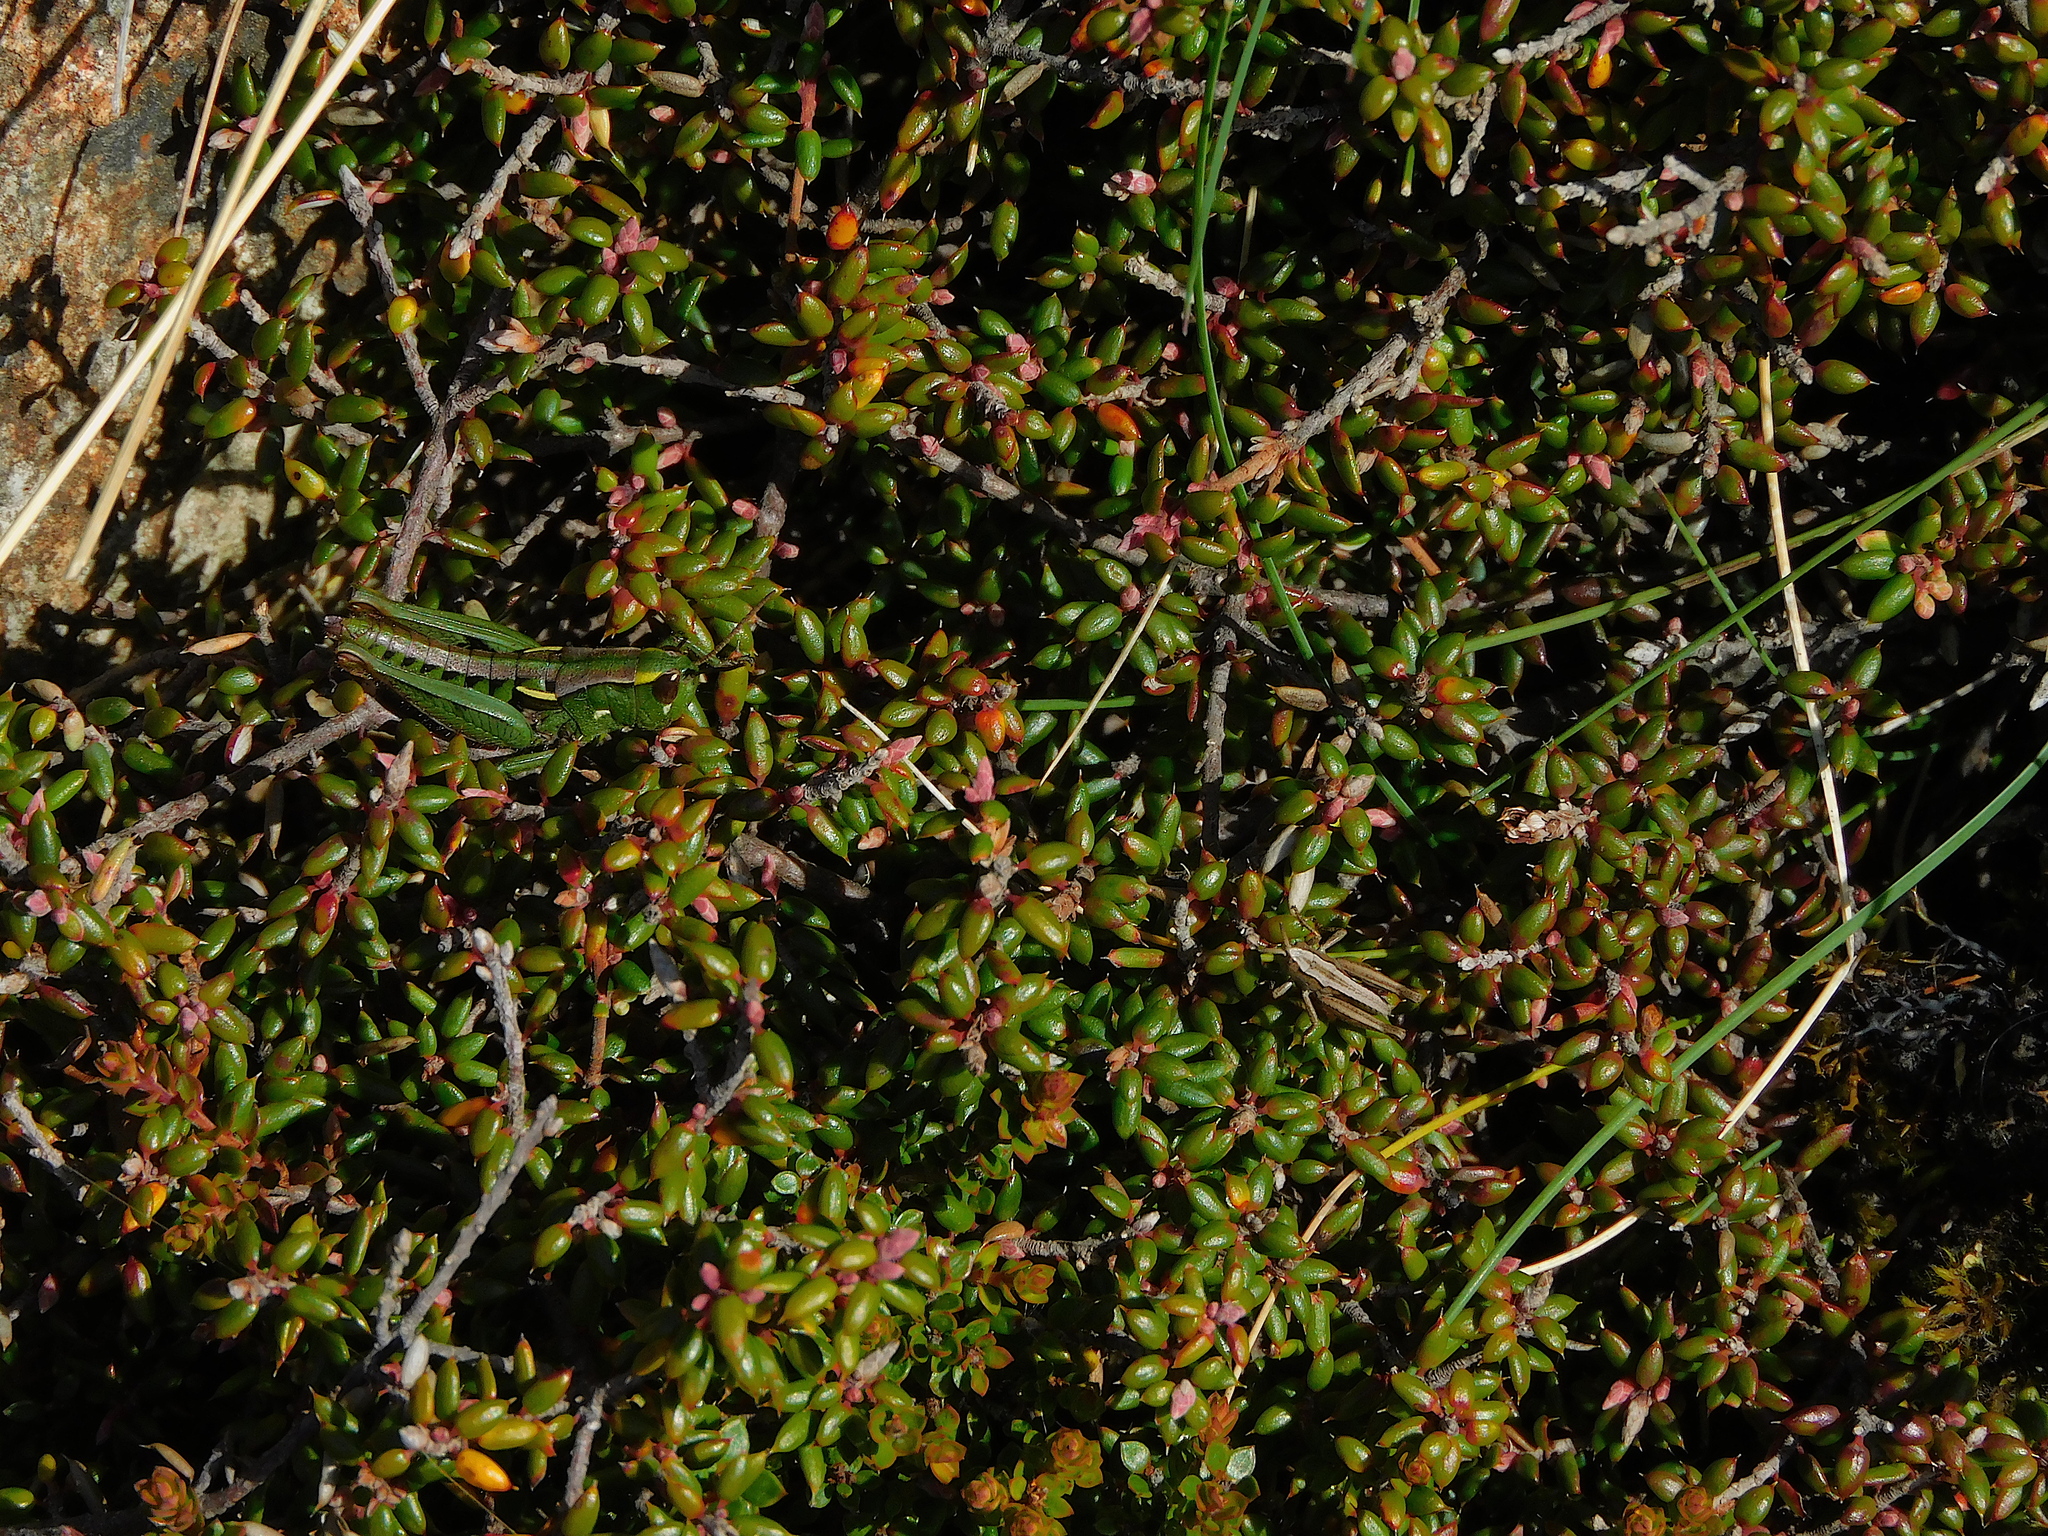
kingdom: Animalia
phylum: Arthropoda
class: Insecta
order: Orthoptera
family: Acrididae
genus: Russalpia
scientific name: Russalpia albertisi
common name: Tassie hopper
